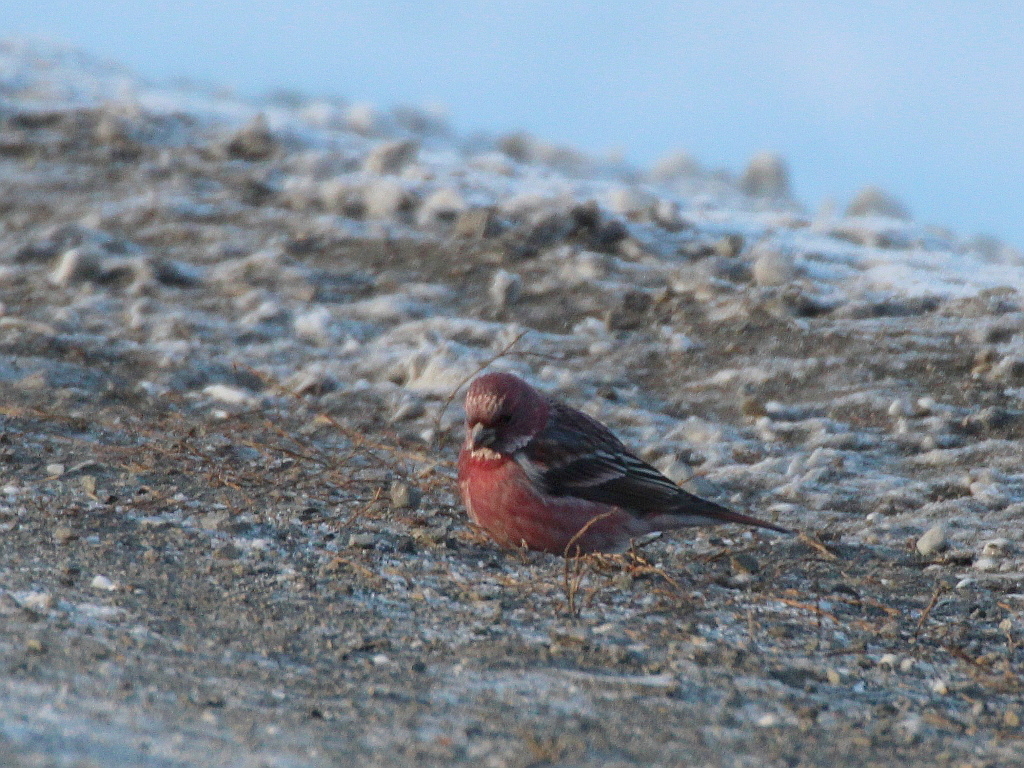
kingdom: Animalia
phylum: Chordata
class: Aves
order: Passeriformes
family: Fringillidae
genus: Carpodacus
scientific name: Carpodacus roseus
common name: Pallas's rosefinch
